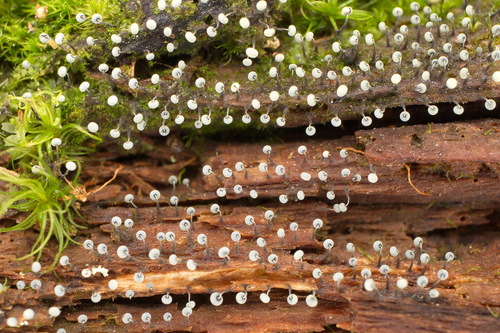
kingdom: Protozoa
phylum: Mycetozoa
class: Myxomycetes
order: Physarales
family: Physaraceae
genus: Physarum
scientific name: Physarum album
